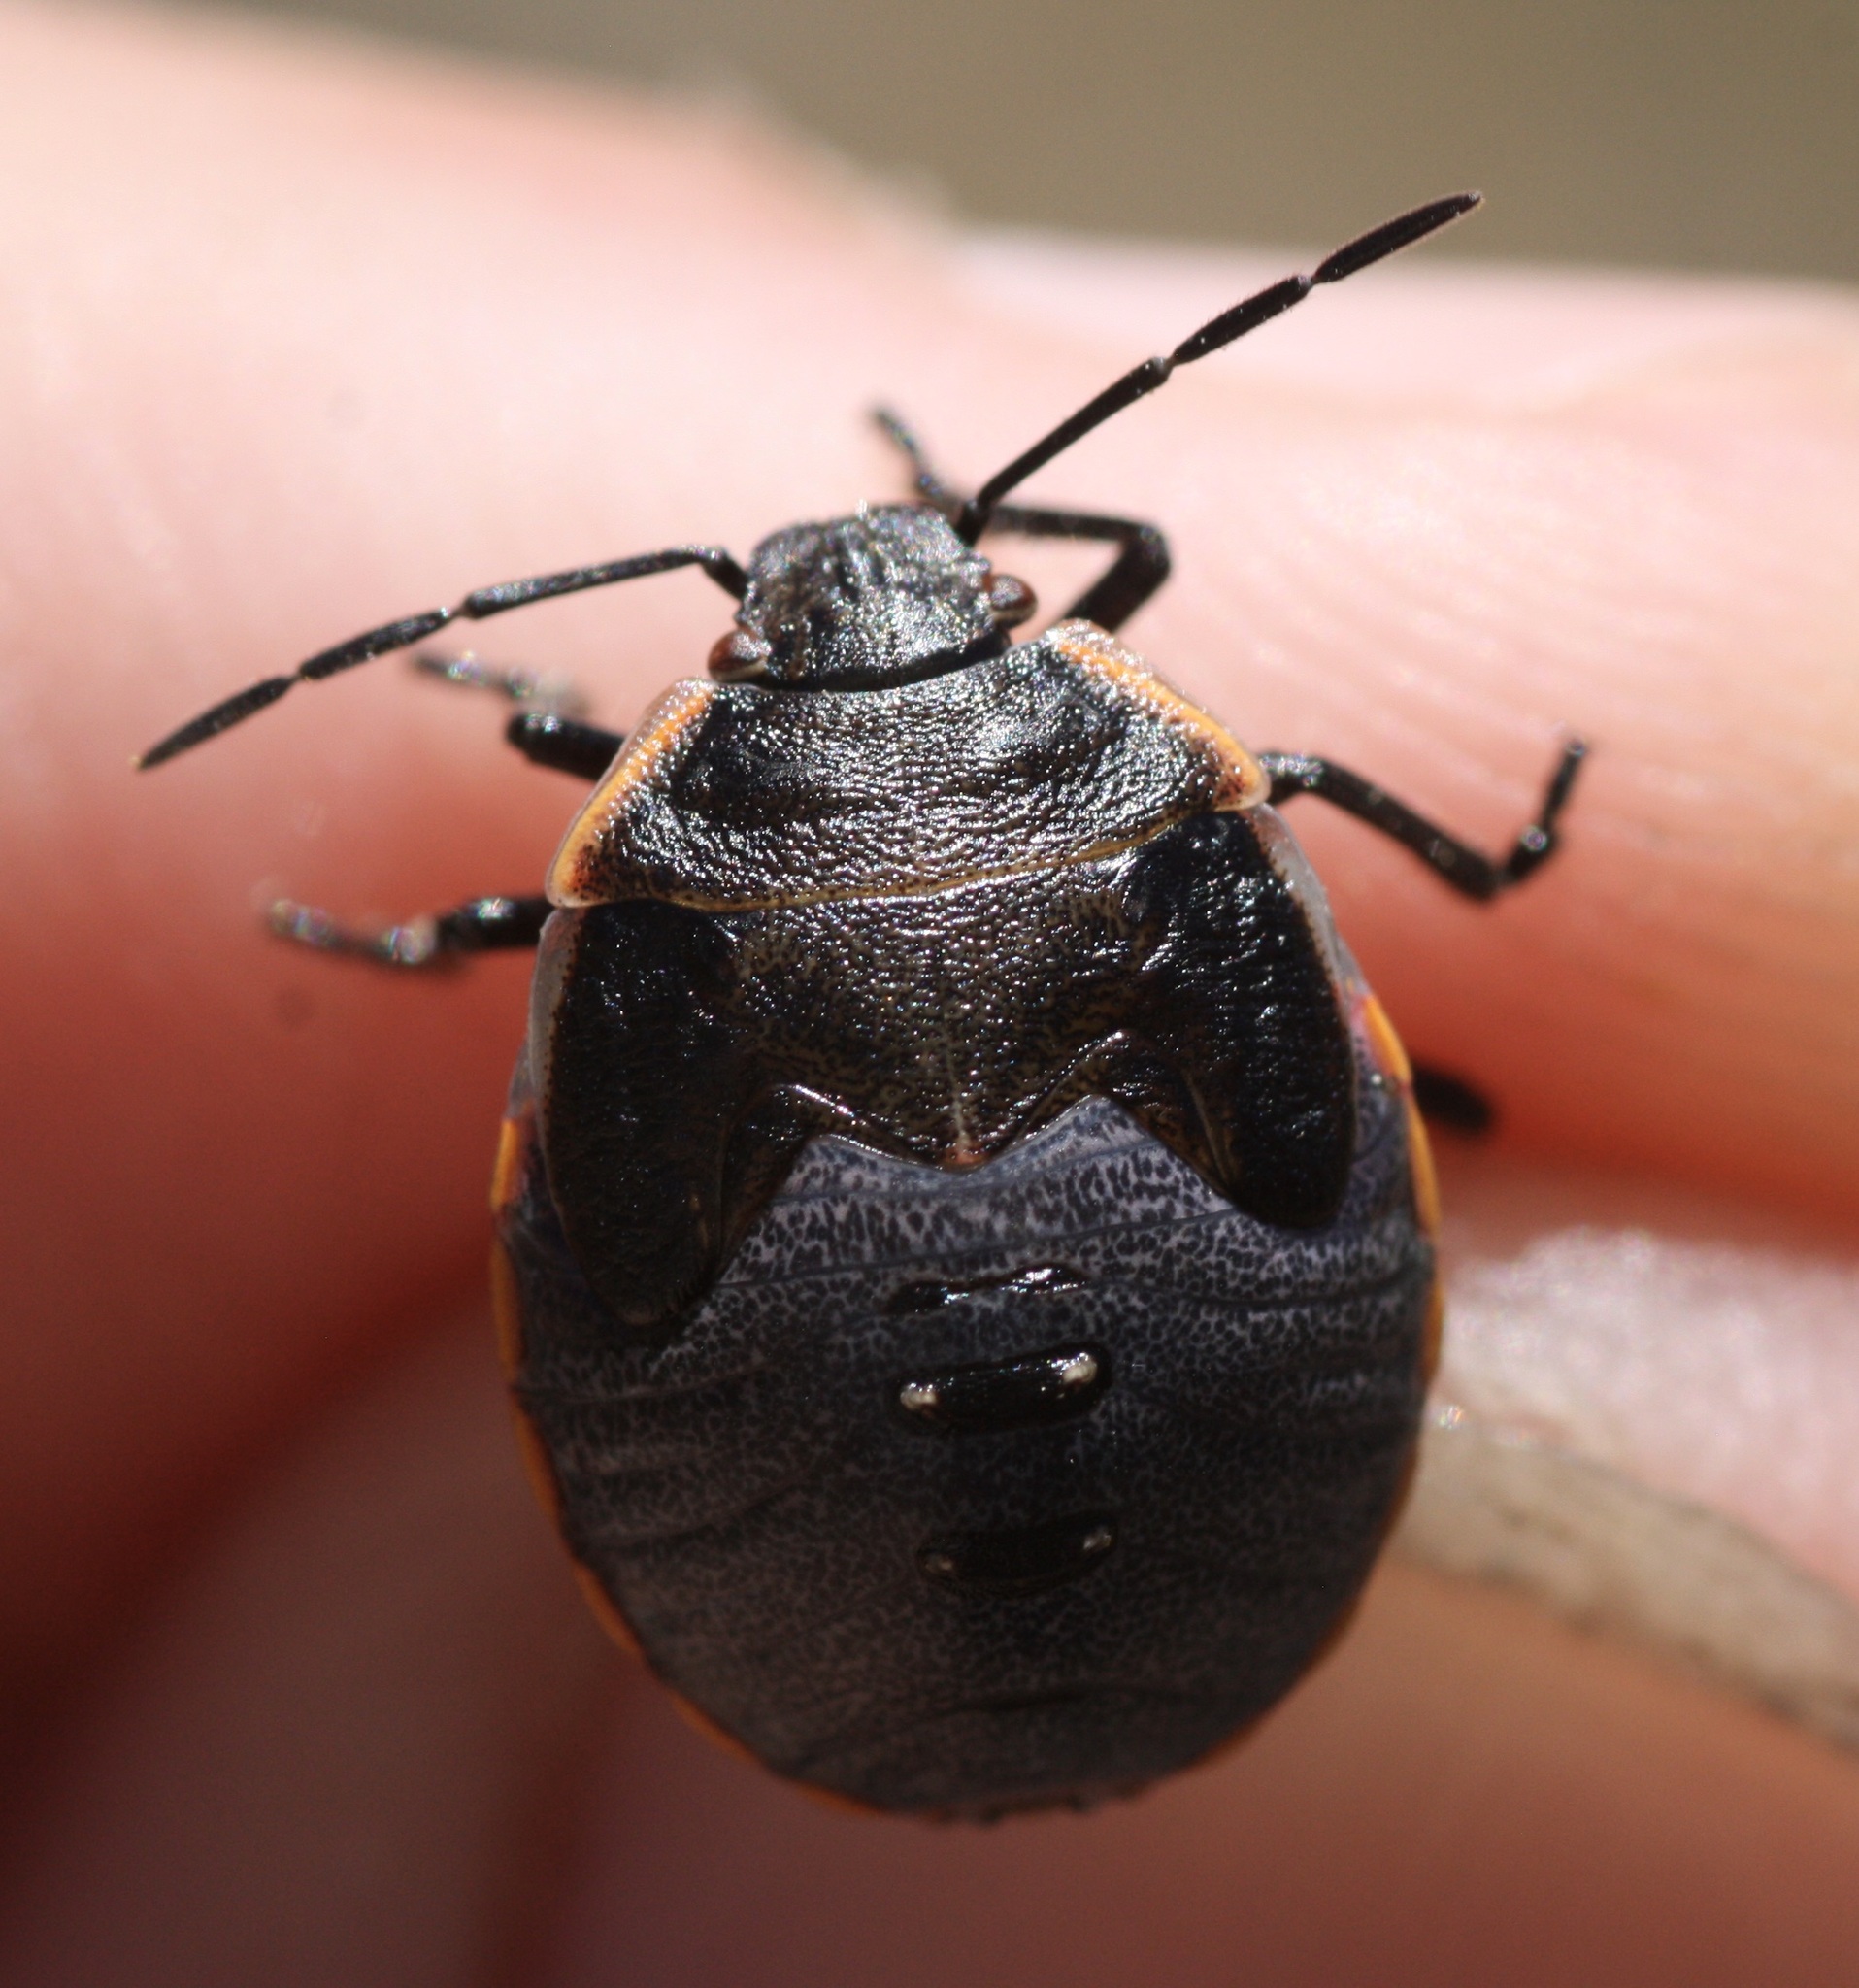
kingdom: Animalia
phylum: Arthropoda
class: Insecta
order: Hemiptera
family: Pentatomidae
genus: Chlorochroa
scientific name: Chlorochroa ligata
